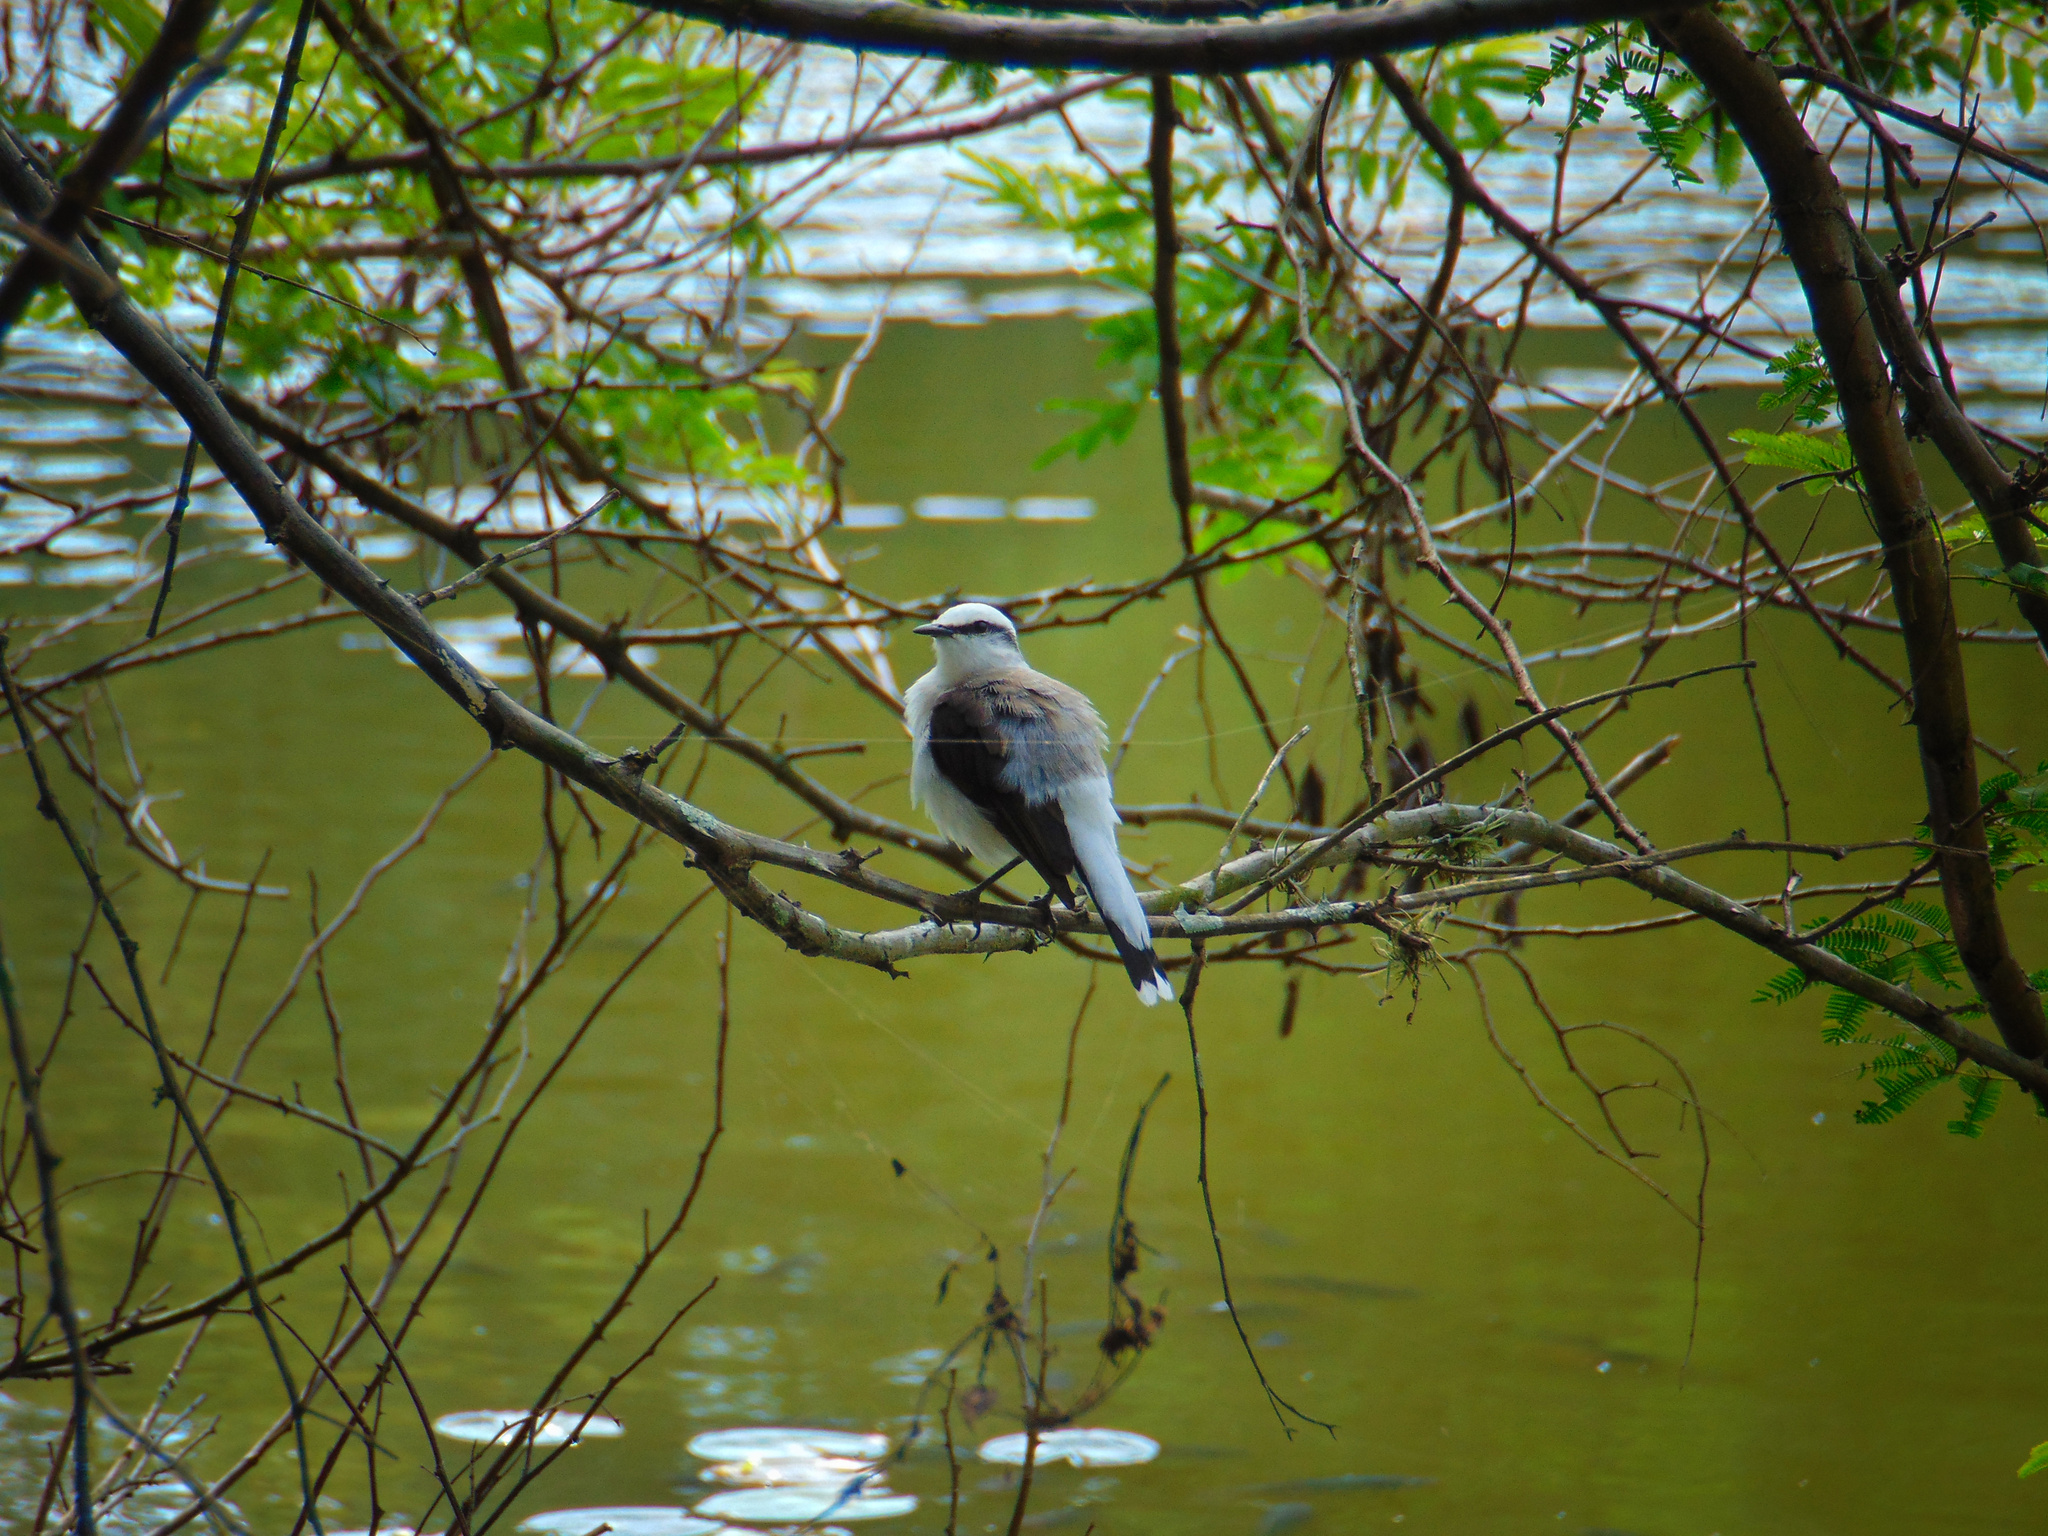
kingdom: Animalia
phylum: Chordata
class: Aves
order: Passeriformes
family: Tyrannidae
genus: Fluvicola
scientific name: Fluvicola nengeta
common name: Masked water tyrant
